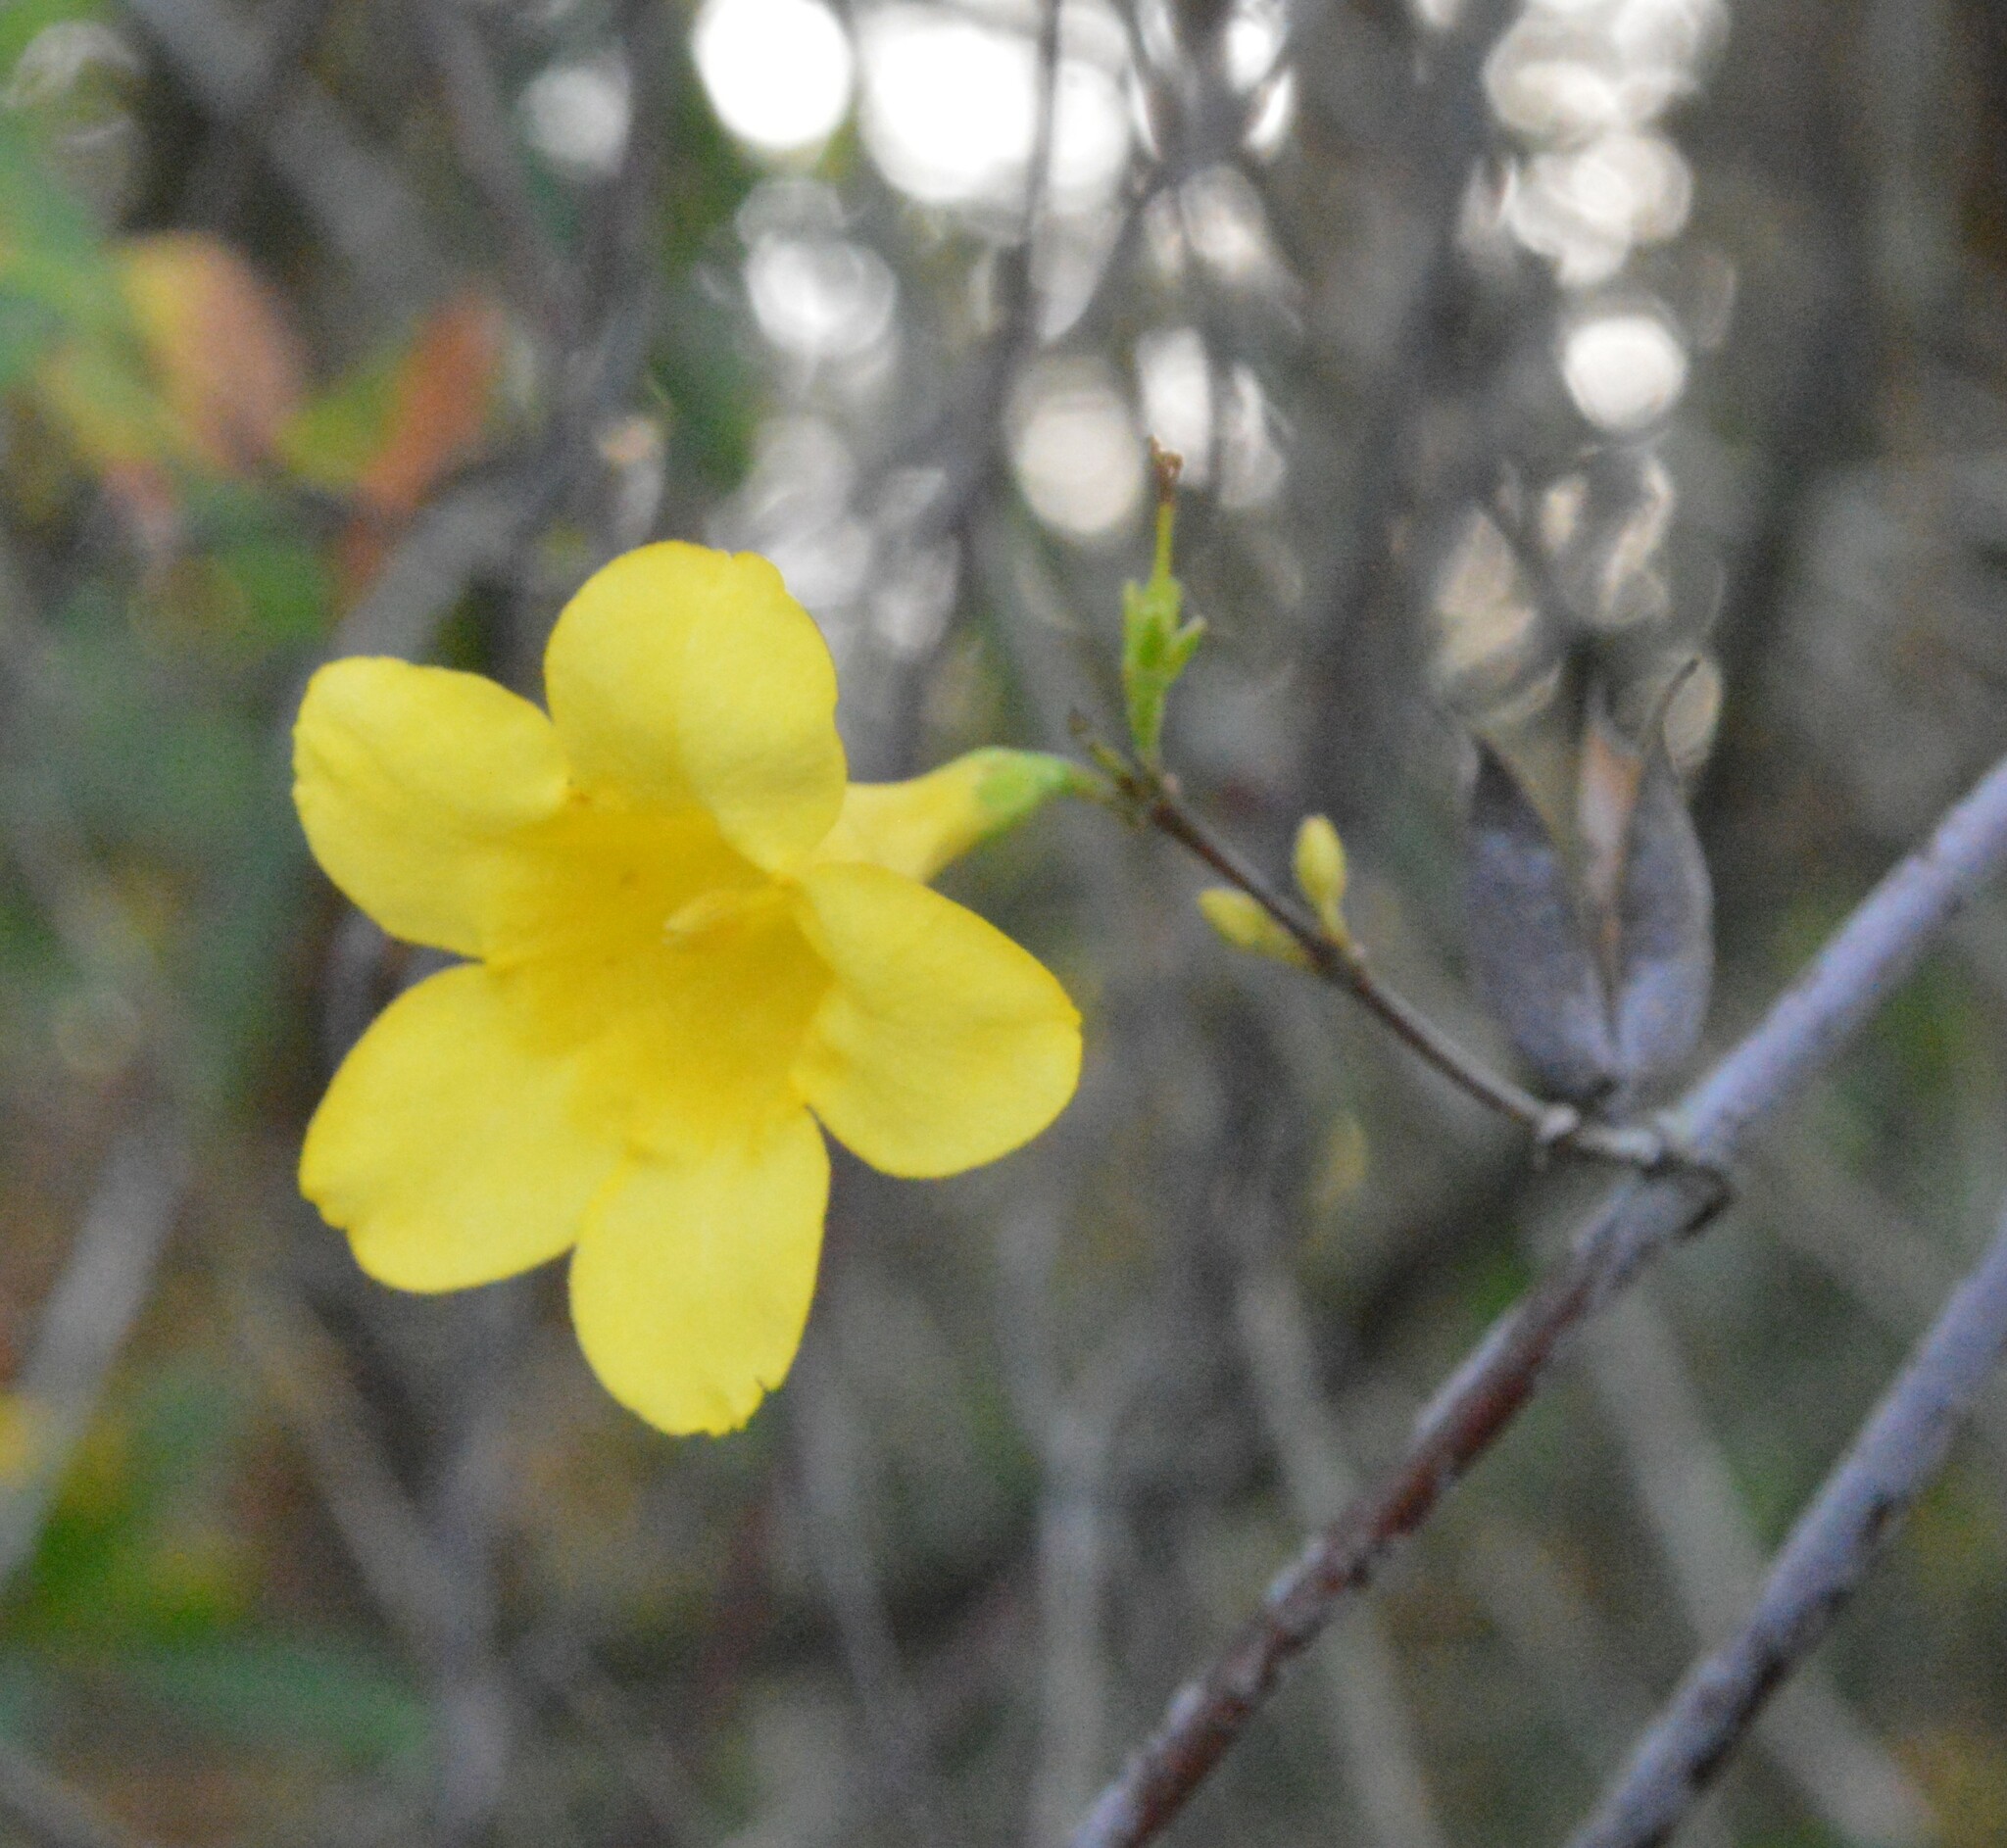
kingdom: Plantae
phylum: Tracheophyta
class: Magnoliopsida
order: Gentianales
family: Gelsemiaceae
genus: Gelsemium
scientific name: Gelsemium sempervirens
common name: Carolina-jasmine
